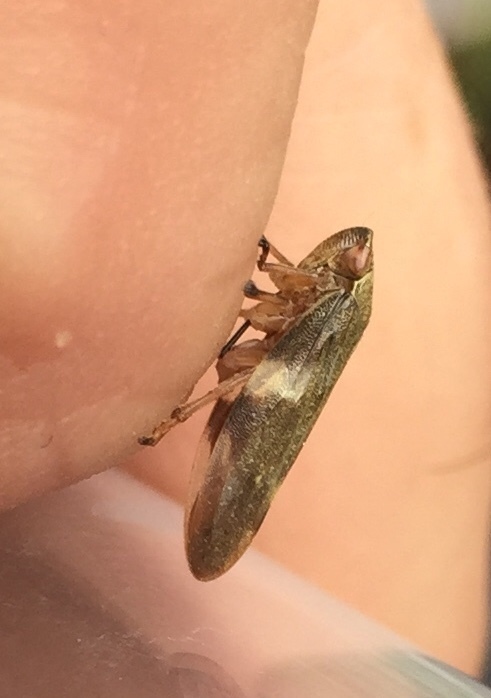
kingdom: Animalia
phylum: Arthropoda
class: Insecta
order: Hemiptera
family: Aphrophoridae
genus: Philaenus
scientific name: Philaenus spumarius
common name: Meadow spittlebug
